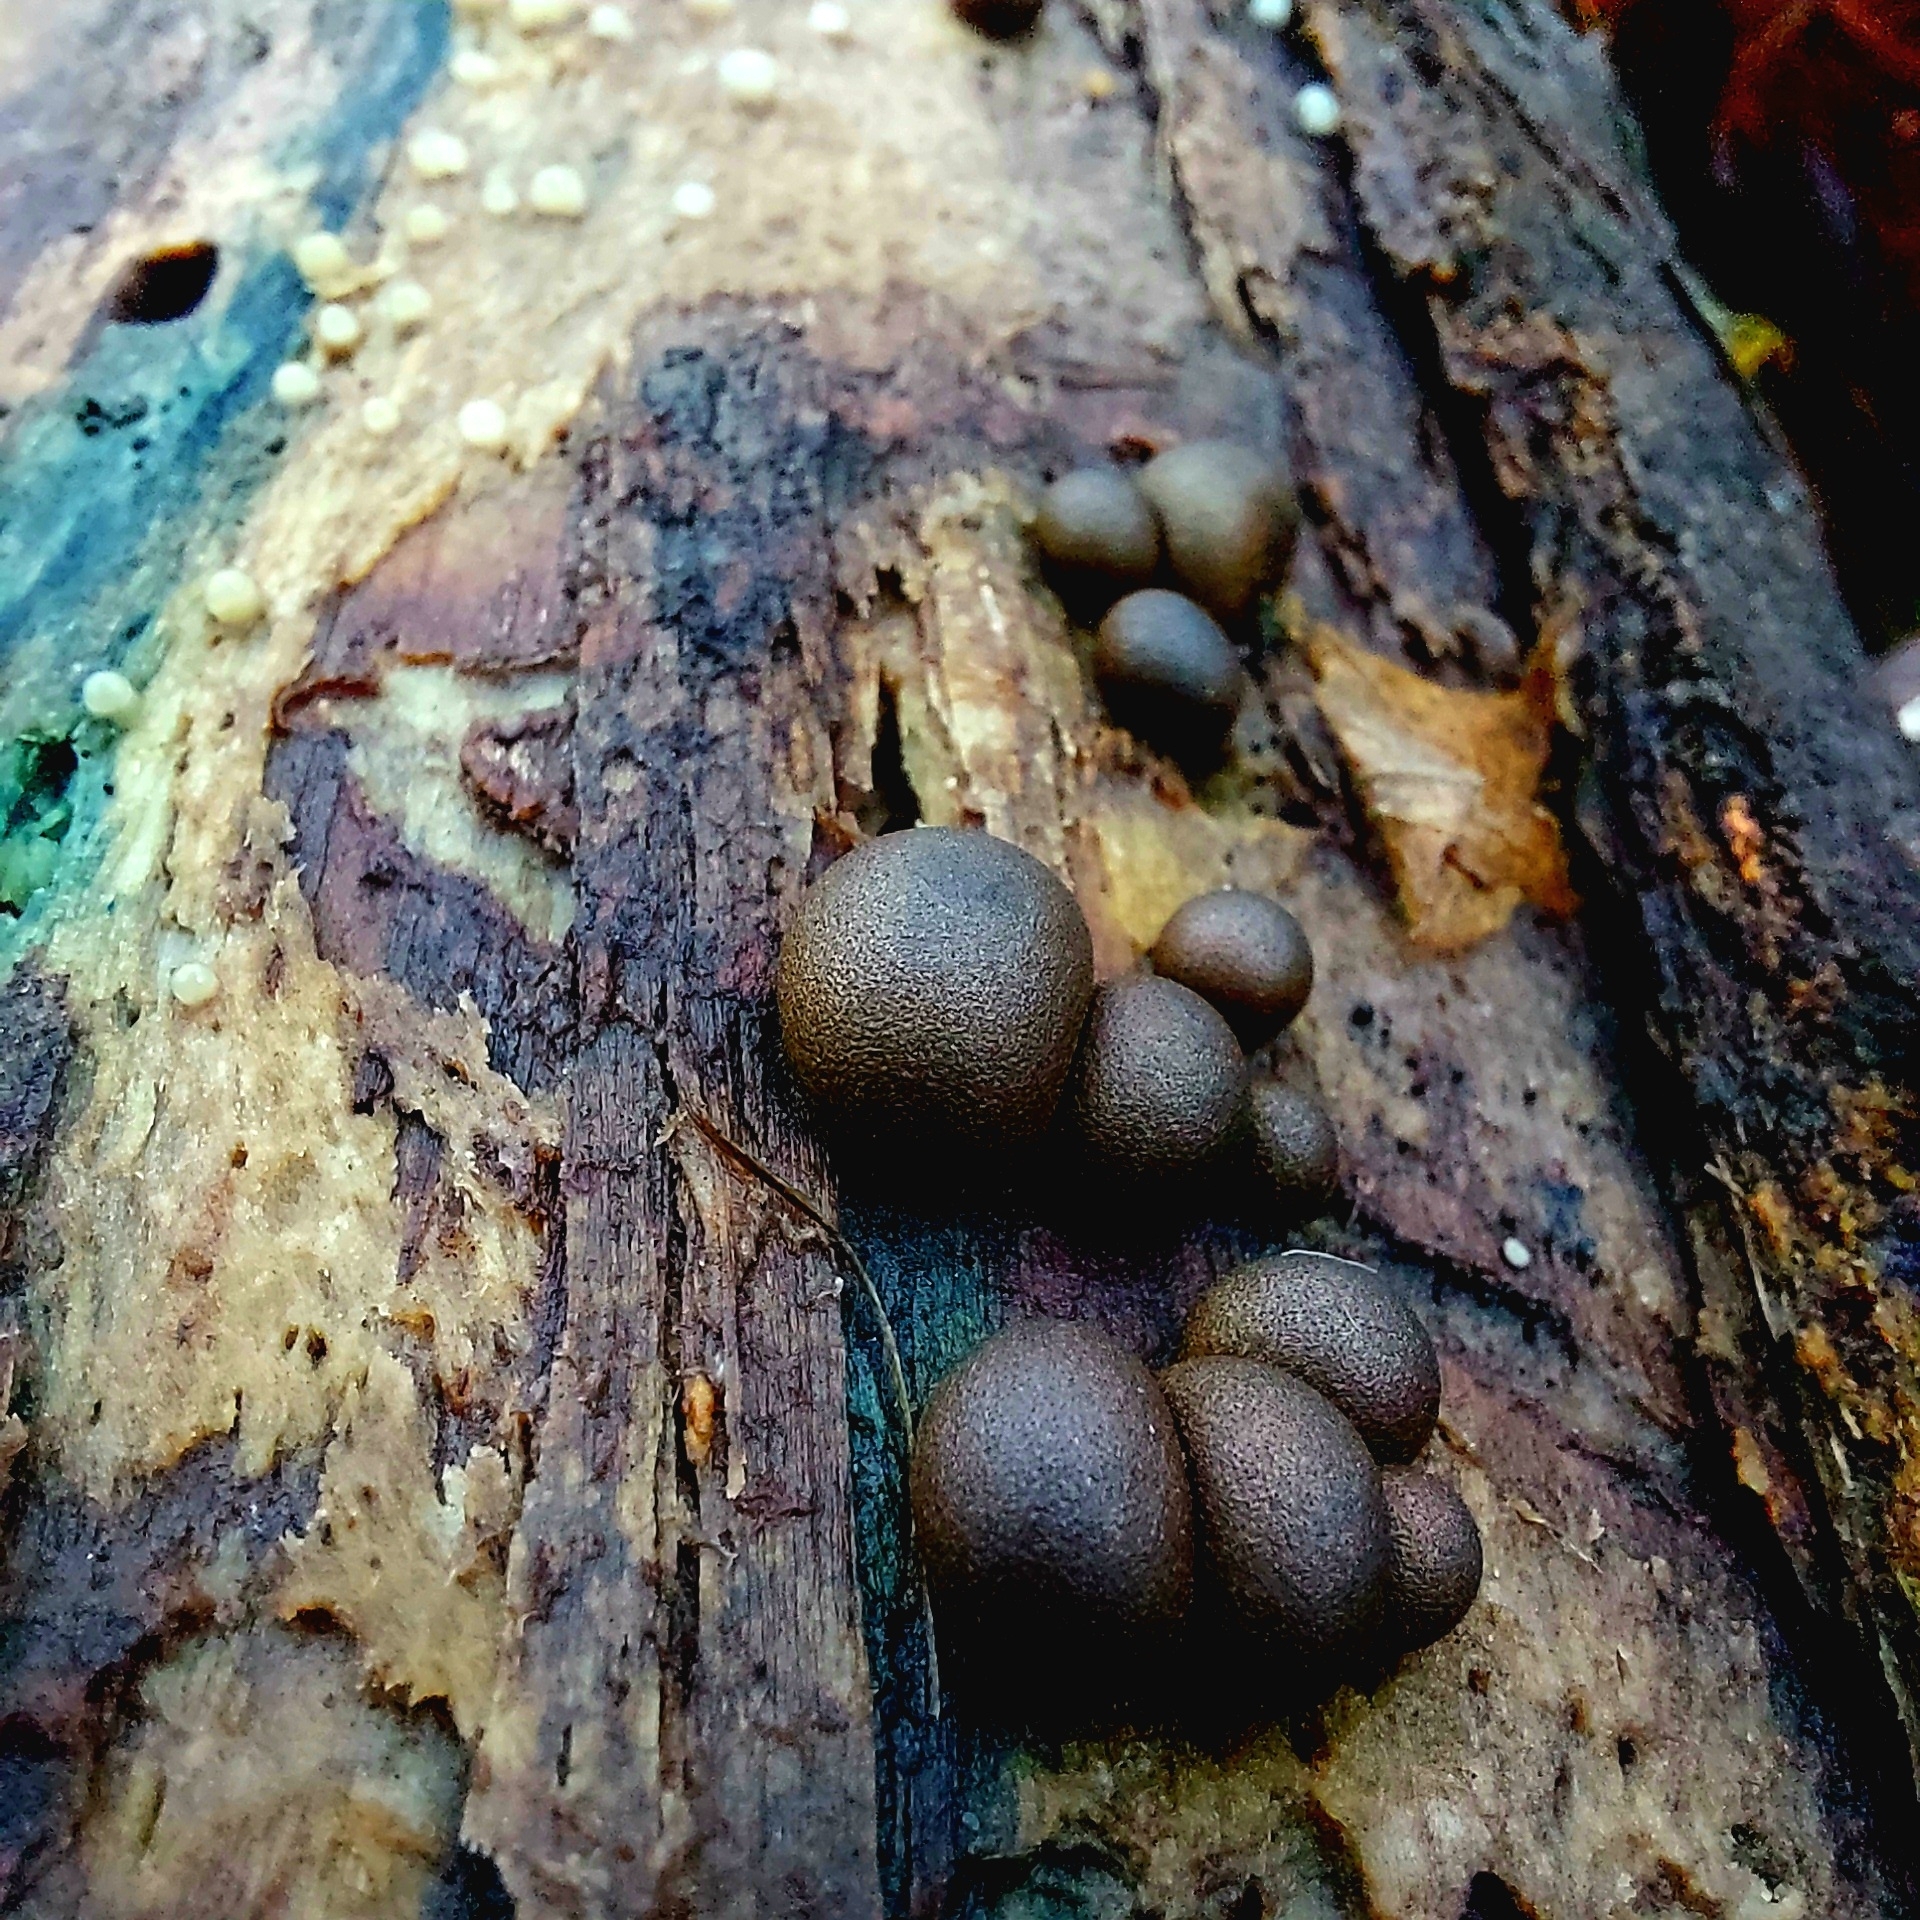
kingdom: Protozoa
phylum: Mycetozoa
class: Myxomycetes
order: Cribrariales
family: Tubiferaceae
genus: Lycogala
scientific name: Lycogala epidendrum
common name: Wolf's milk
